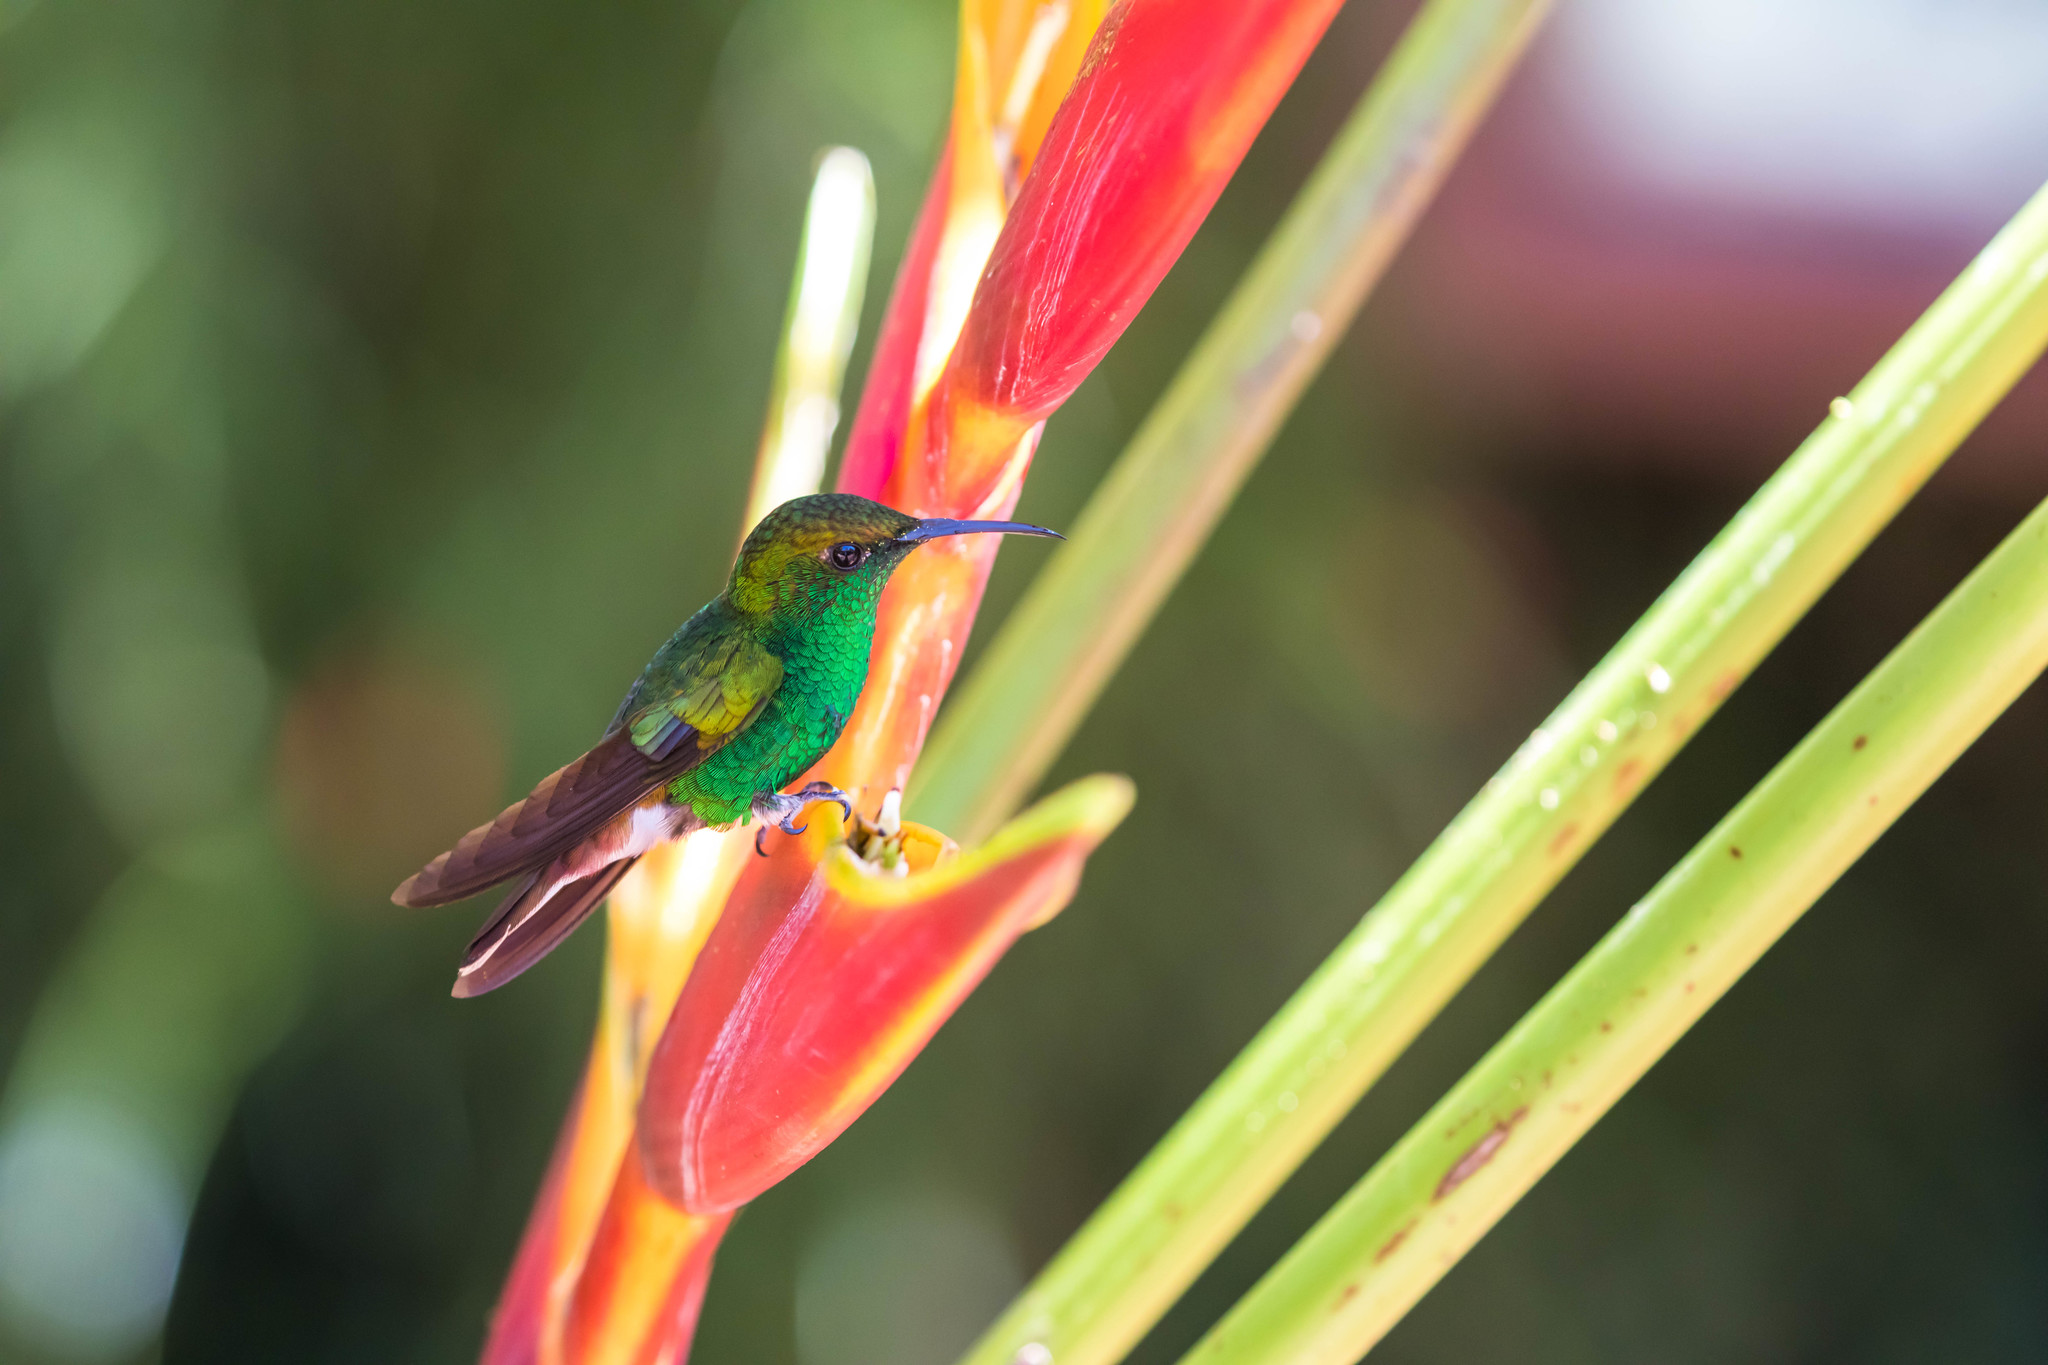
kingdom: Animalia
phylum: Chordata
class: Aves
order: Apodiformes
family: Trochilidae
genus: Microchera
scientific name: Microchera cupreiceps
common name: Coppery-headed emerald
